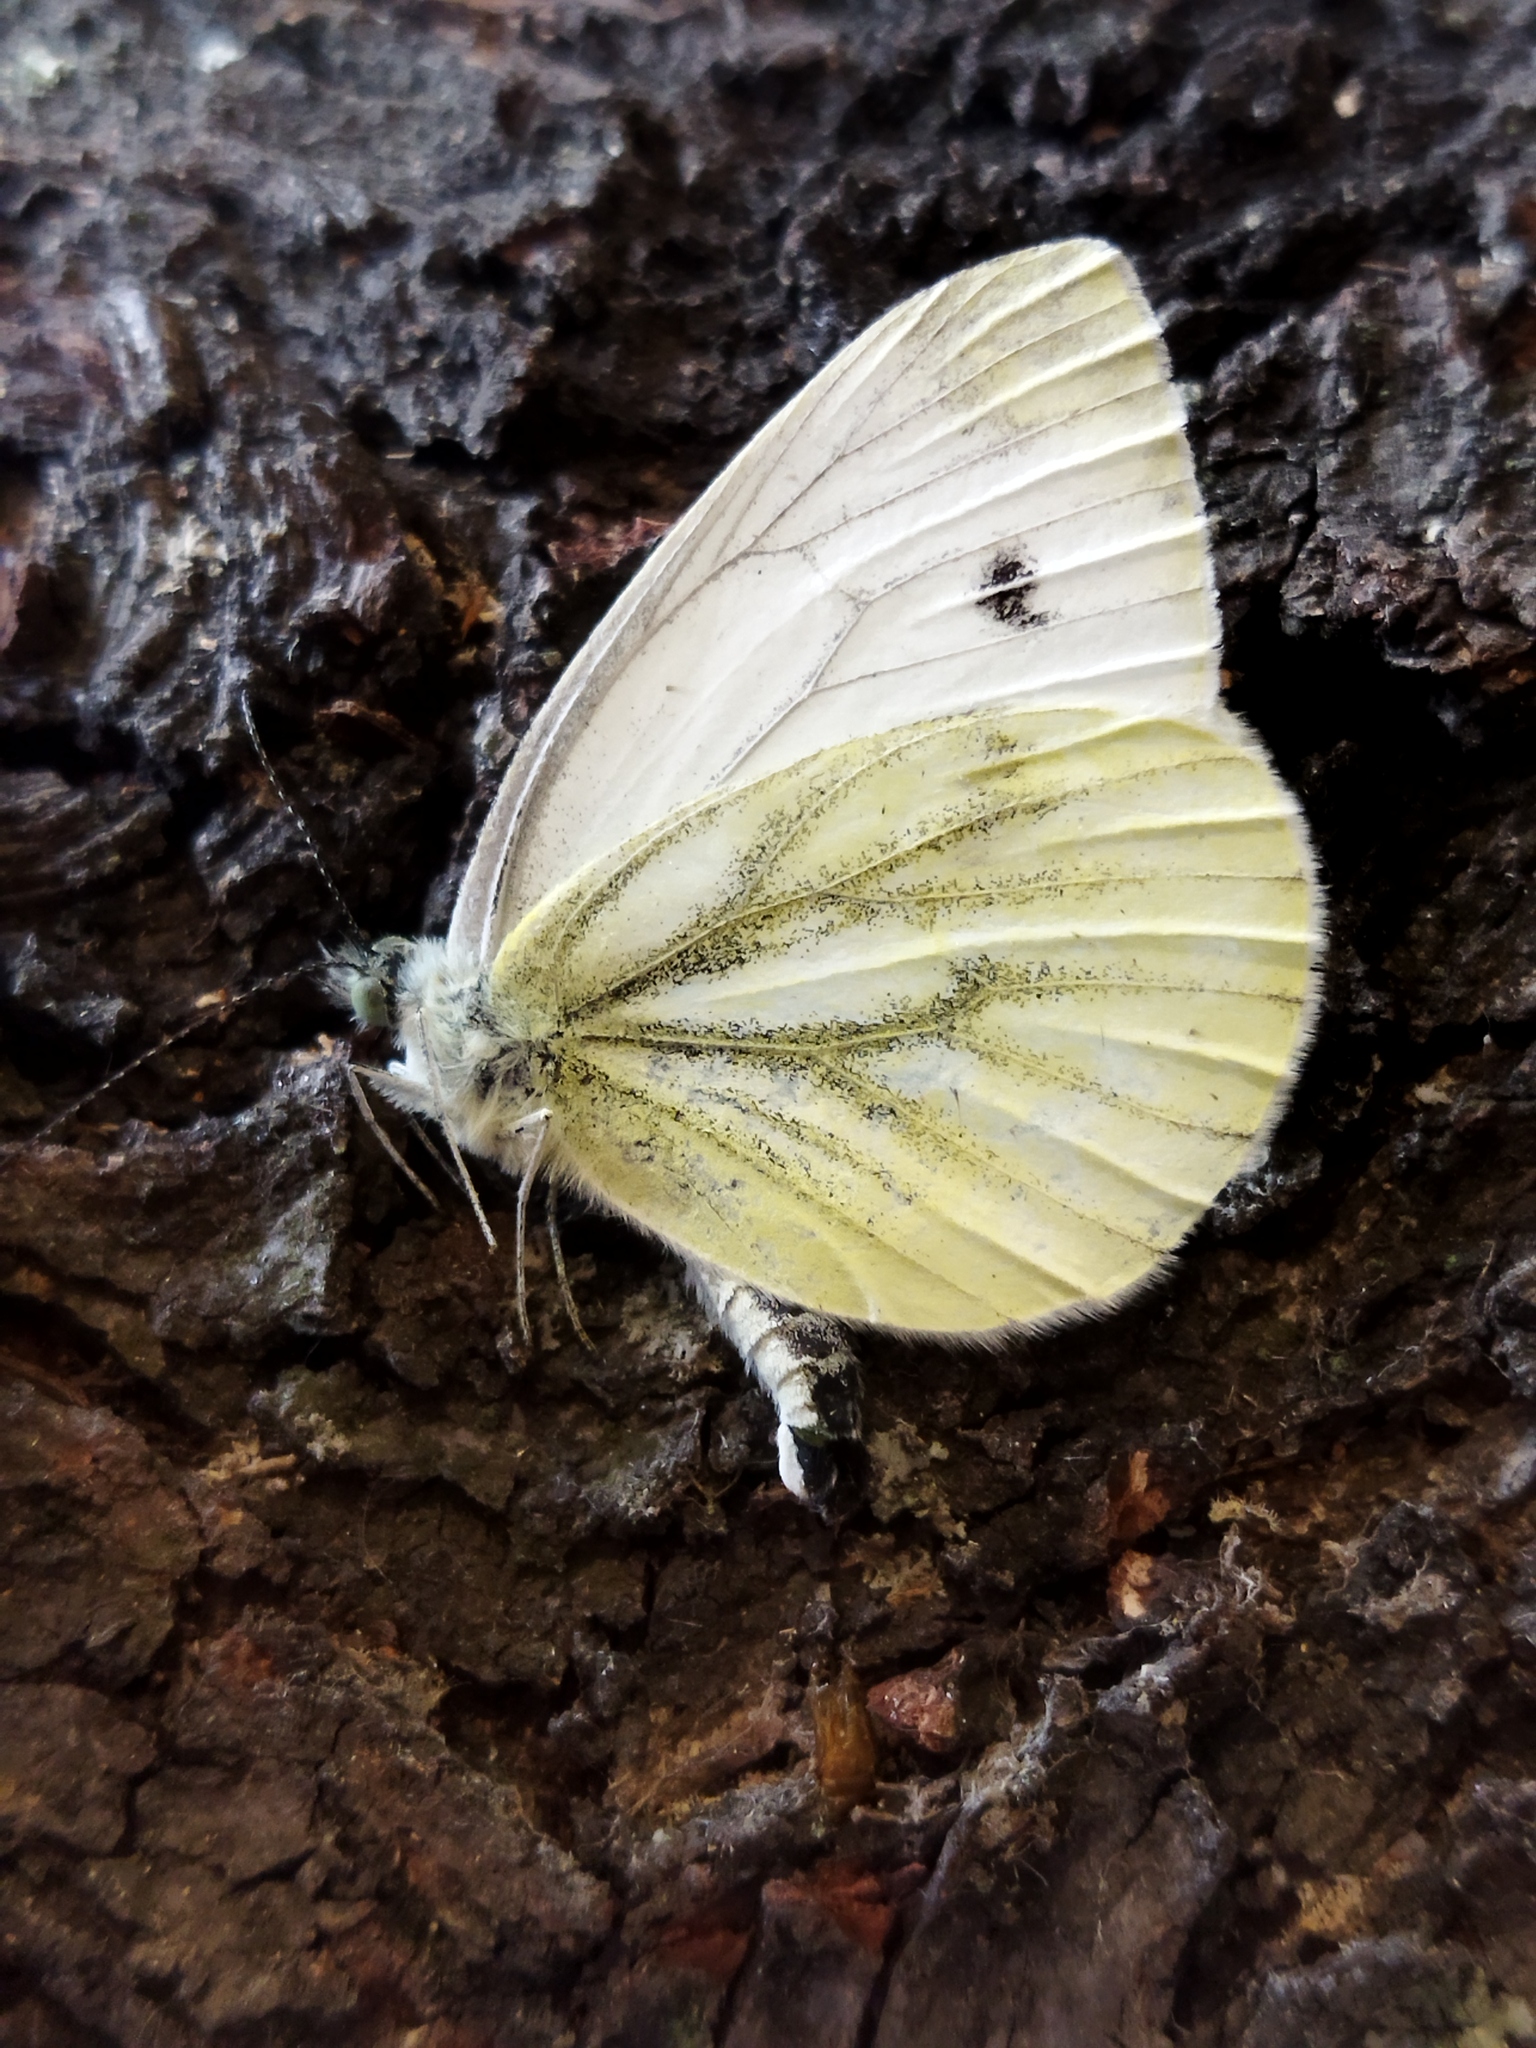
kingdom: Animalia
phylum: Arthropoda
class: Insecta
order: Lepidoptera
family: Pieridae
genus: Pieris
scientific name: Pieris napi
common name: Green-veined white
